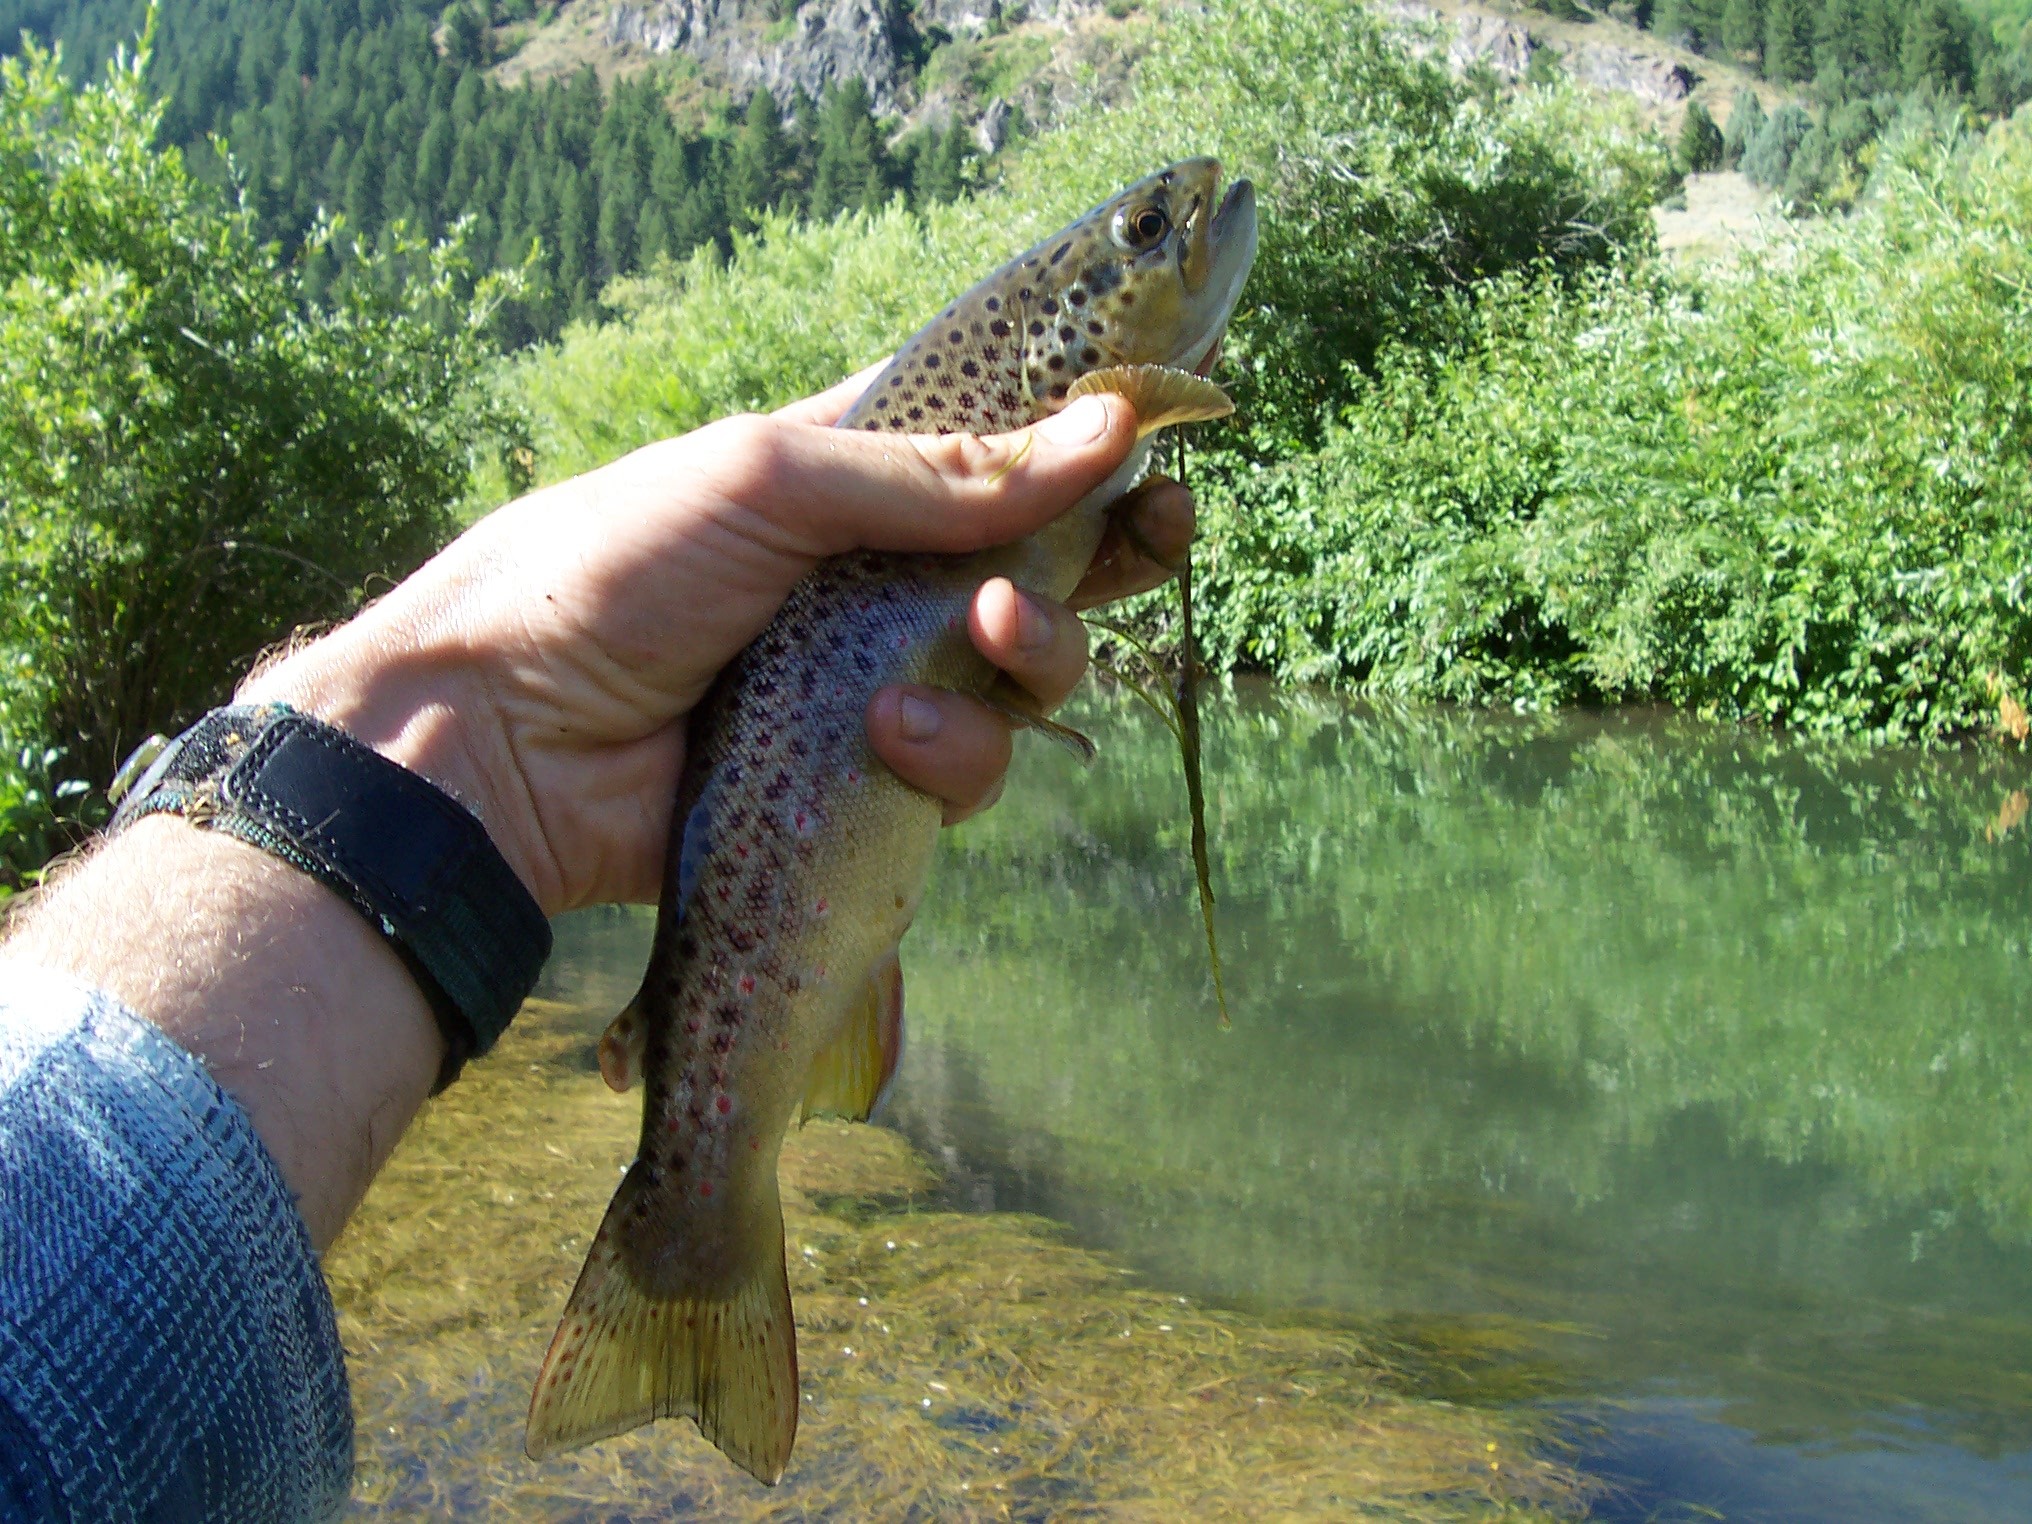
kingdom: Animalia
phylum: Chordata
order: Salmoniformes
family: Salmonidae
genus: Salmo
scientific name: Salmo trutta
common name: Brown trout
